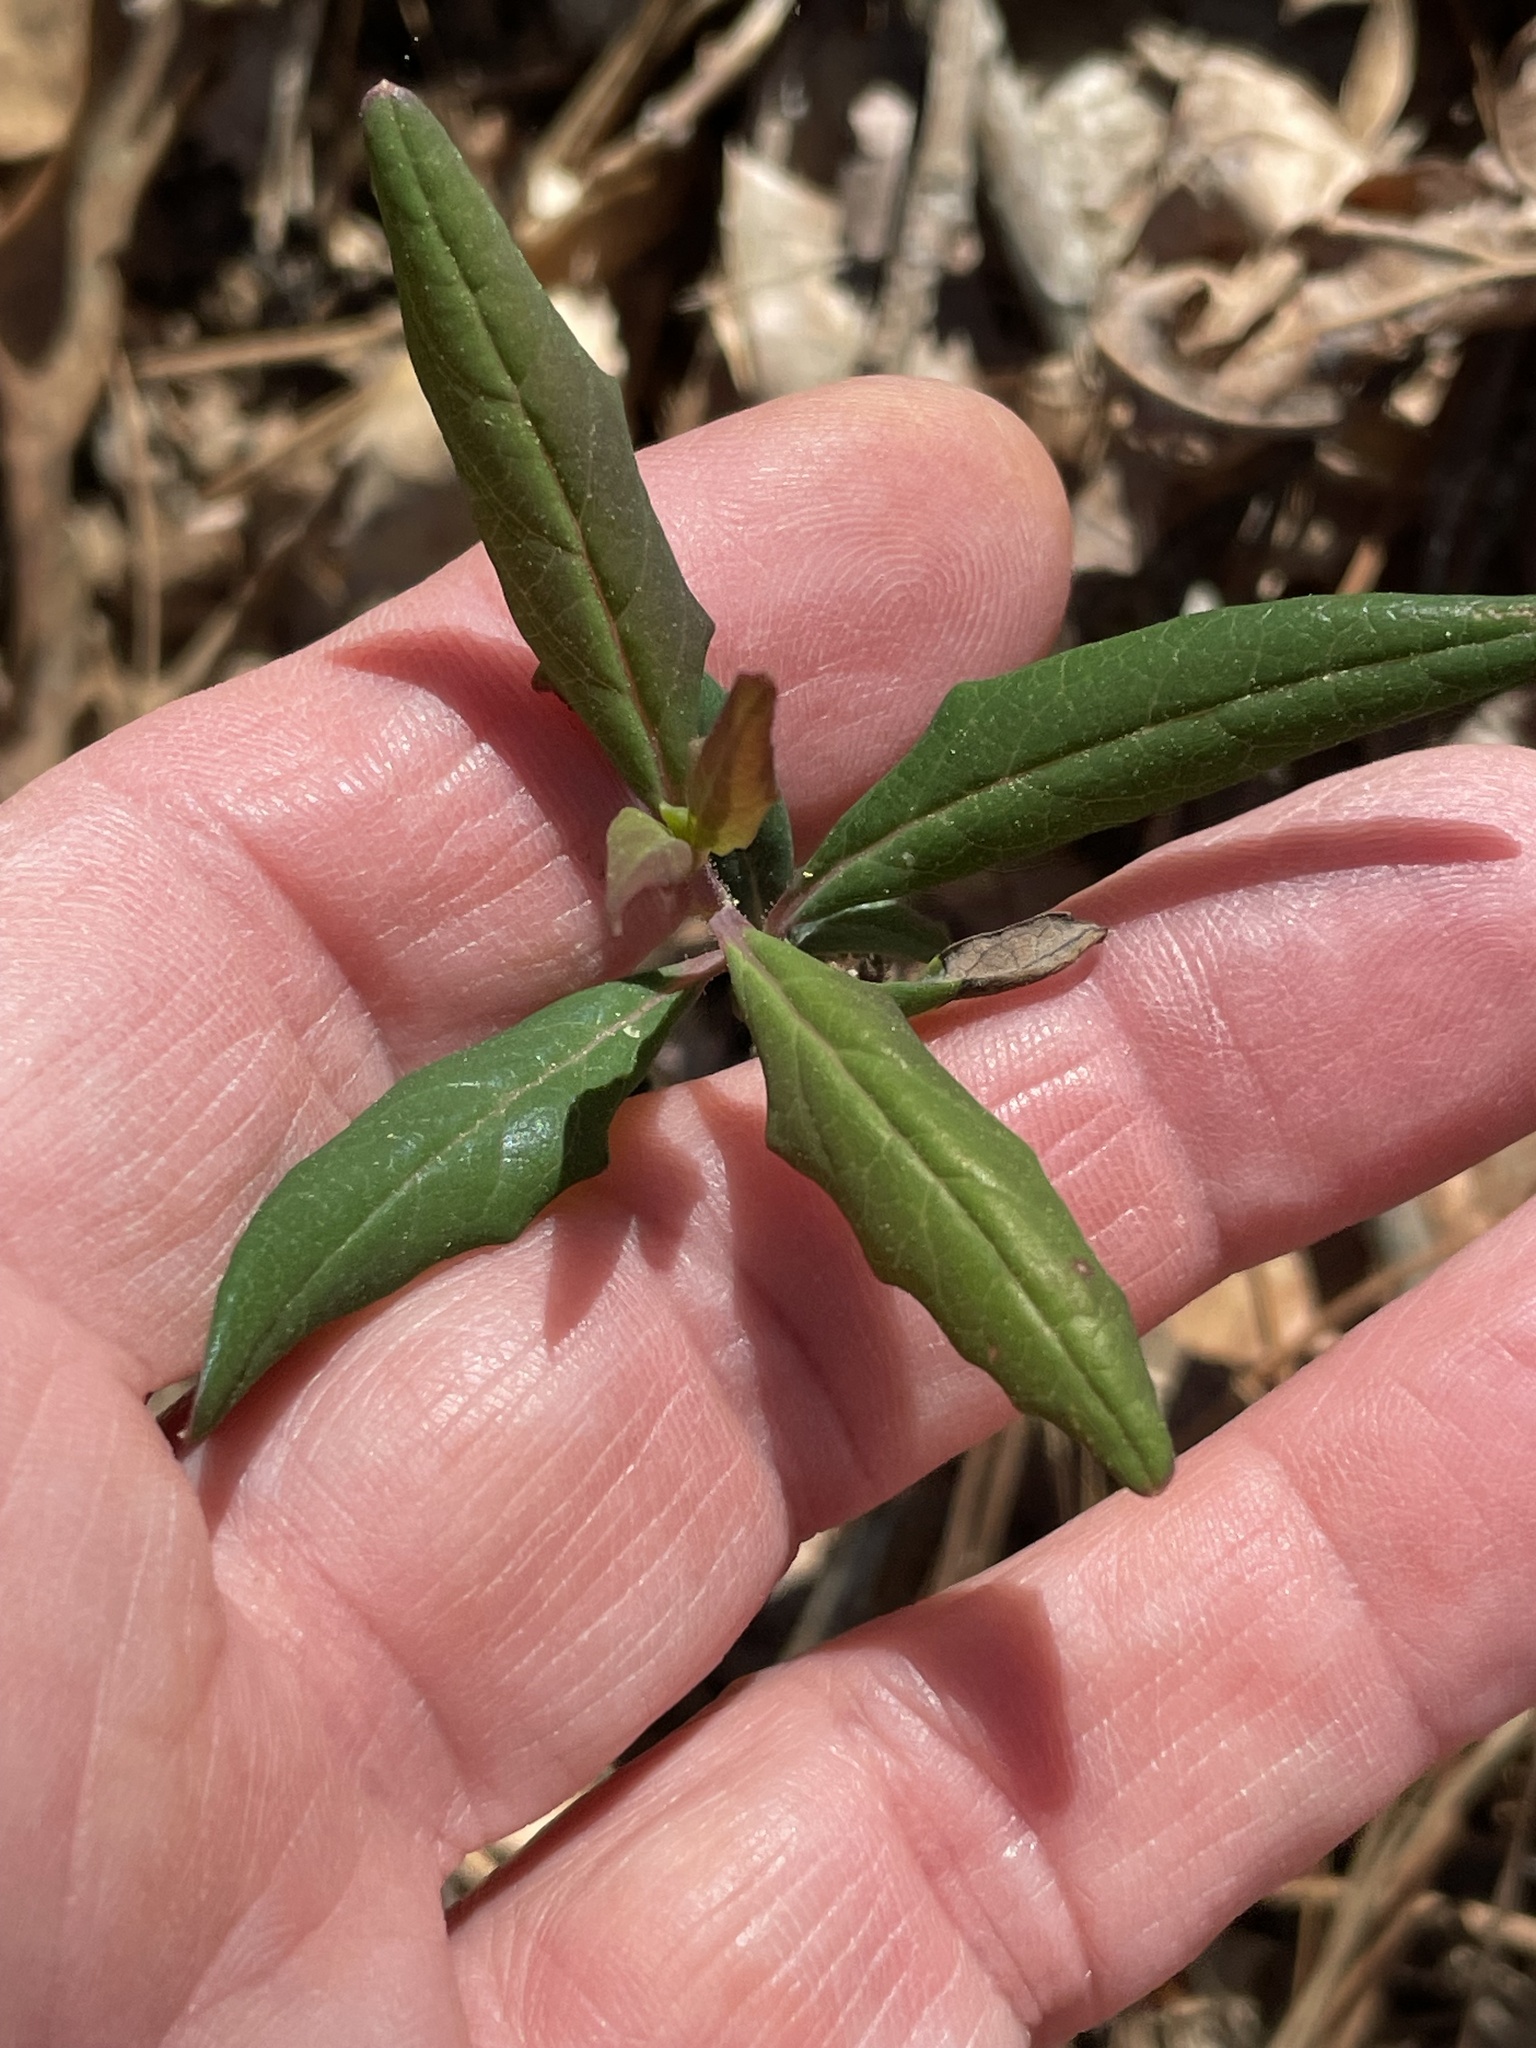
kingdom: Plantae
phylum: Tracheophyta
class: Magnoliopsida
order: Dipsacales
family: Caprifoliaceae
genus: Lonicera
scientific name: Lonicera sempervirens
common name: Coral honeysuckle
